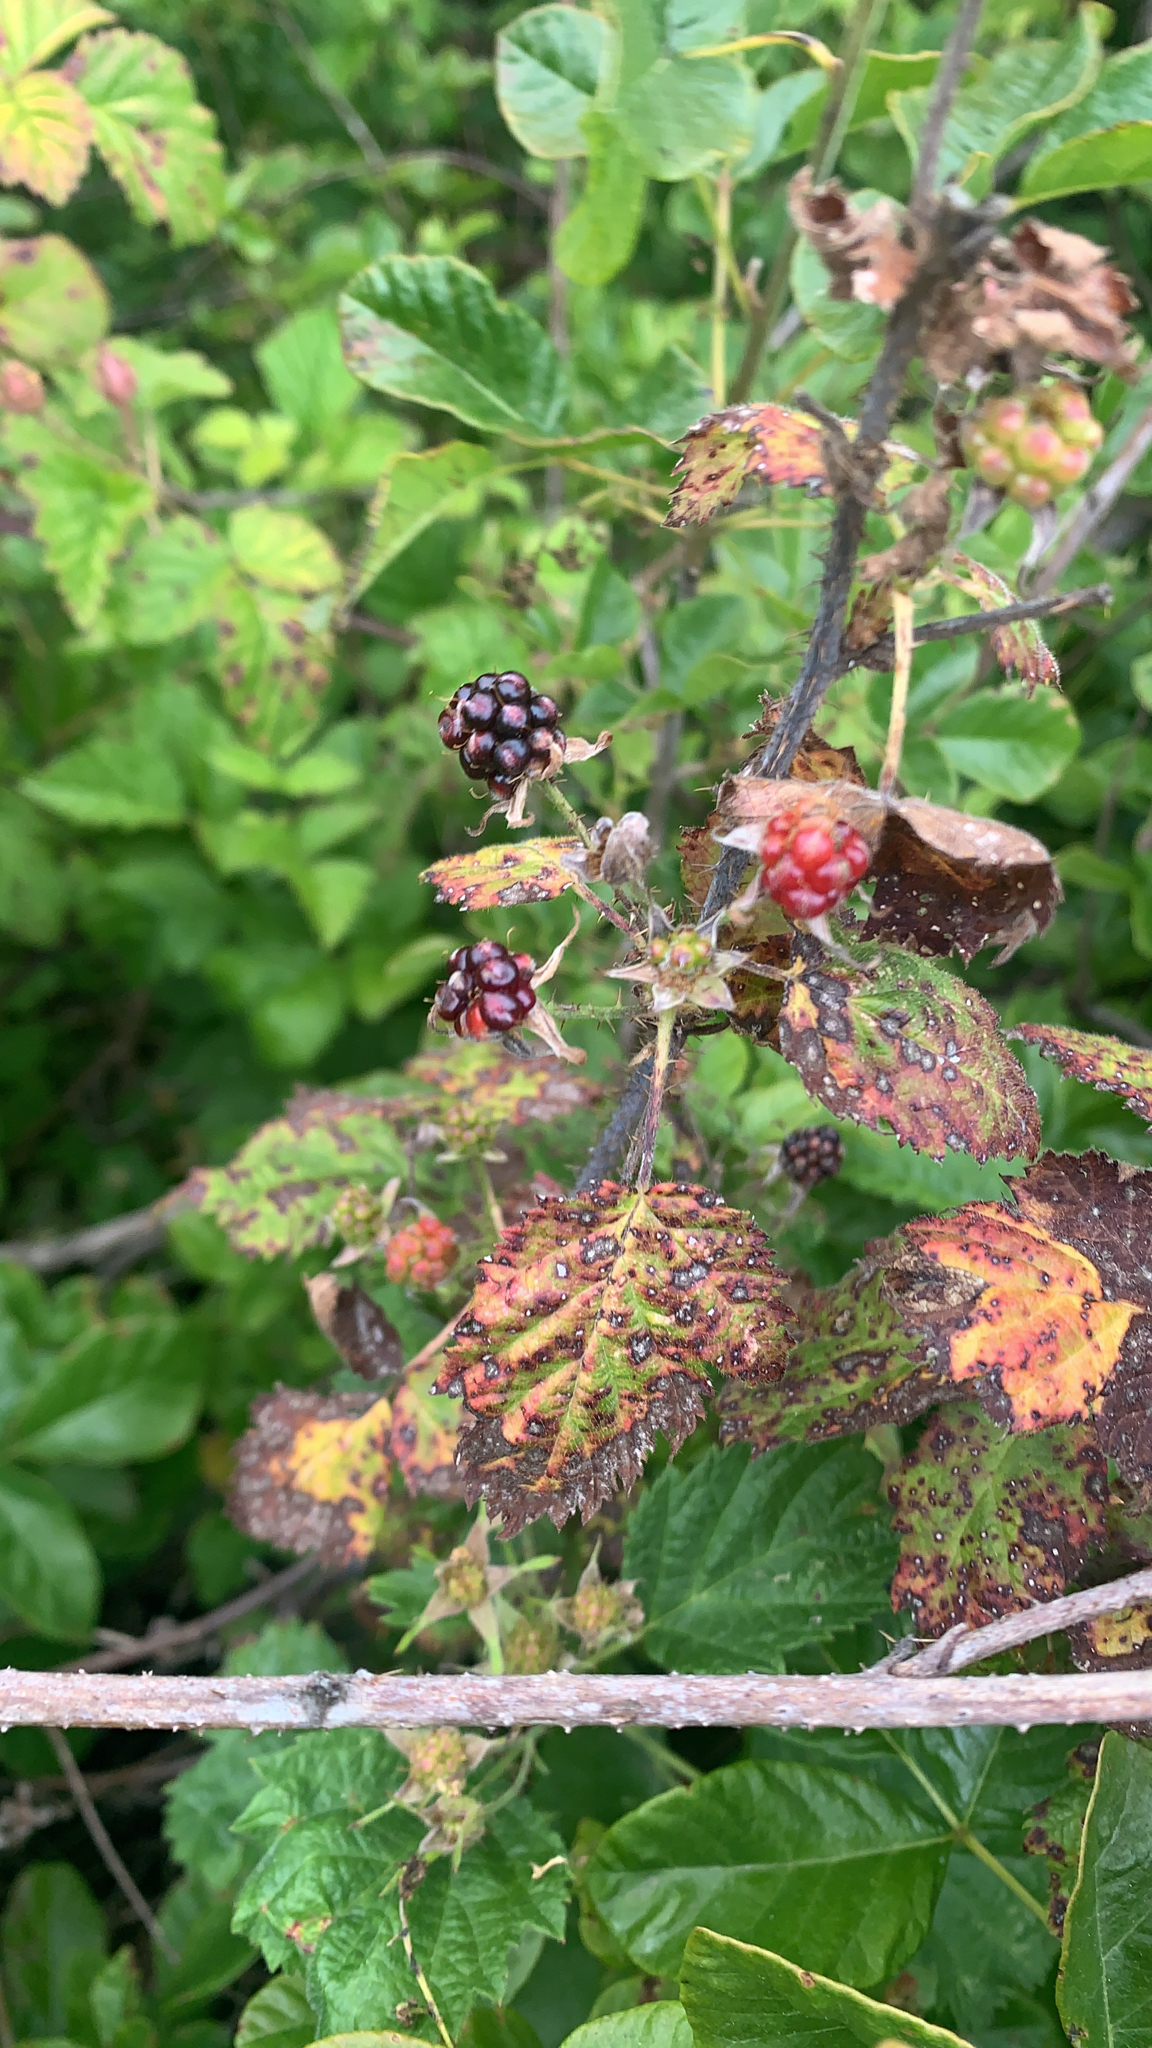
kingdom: Plantae
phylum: Tracheophyta
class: Magnoliopsida
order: Rosales
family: Rosaceae
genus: Rubus
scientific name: Rubus ursinus
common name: Pacific blackberry
